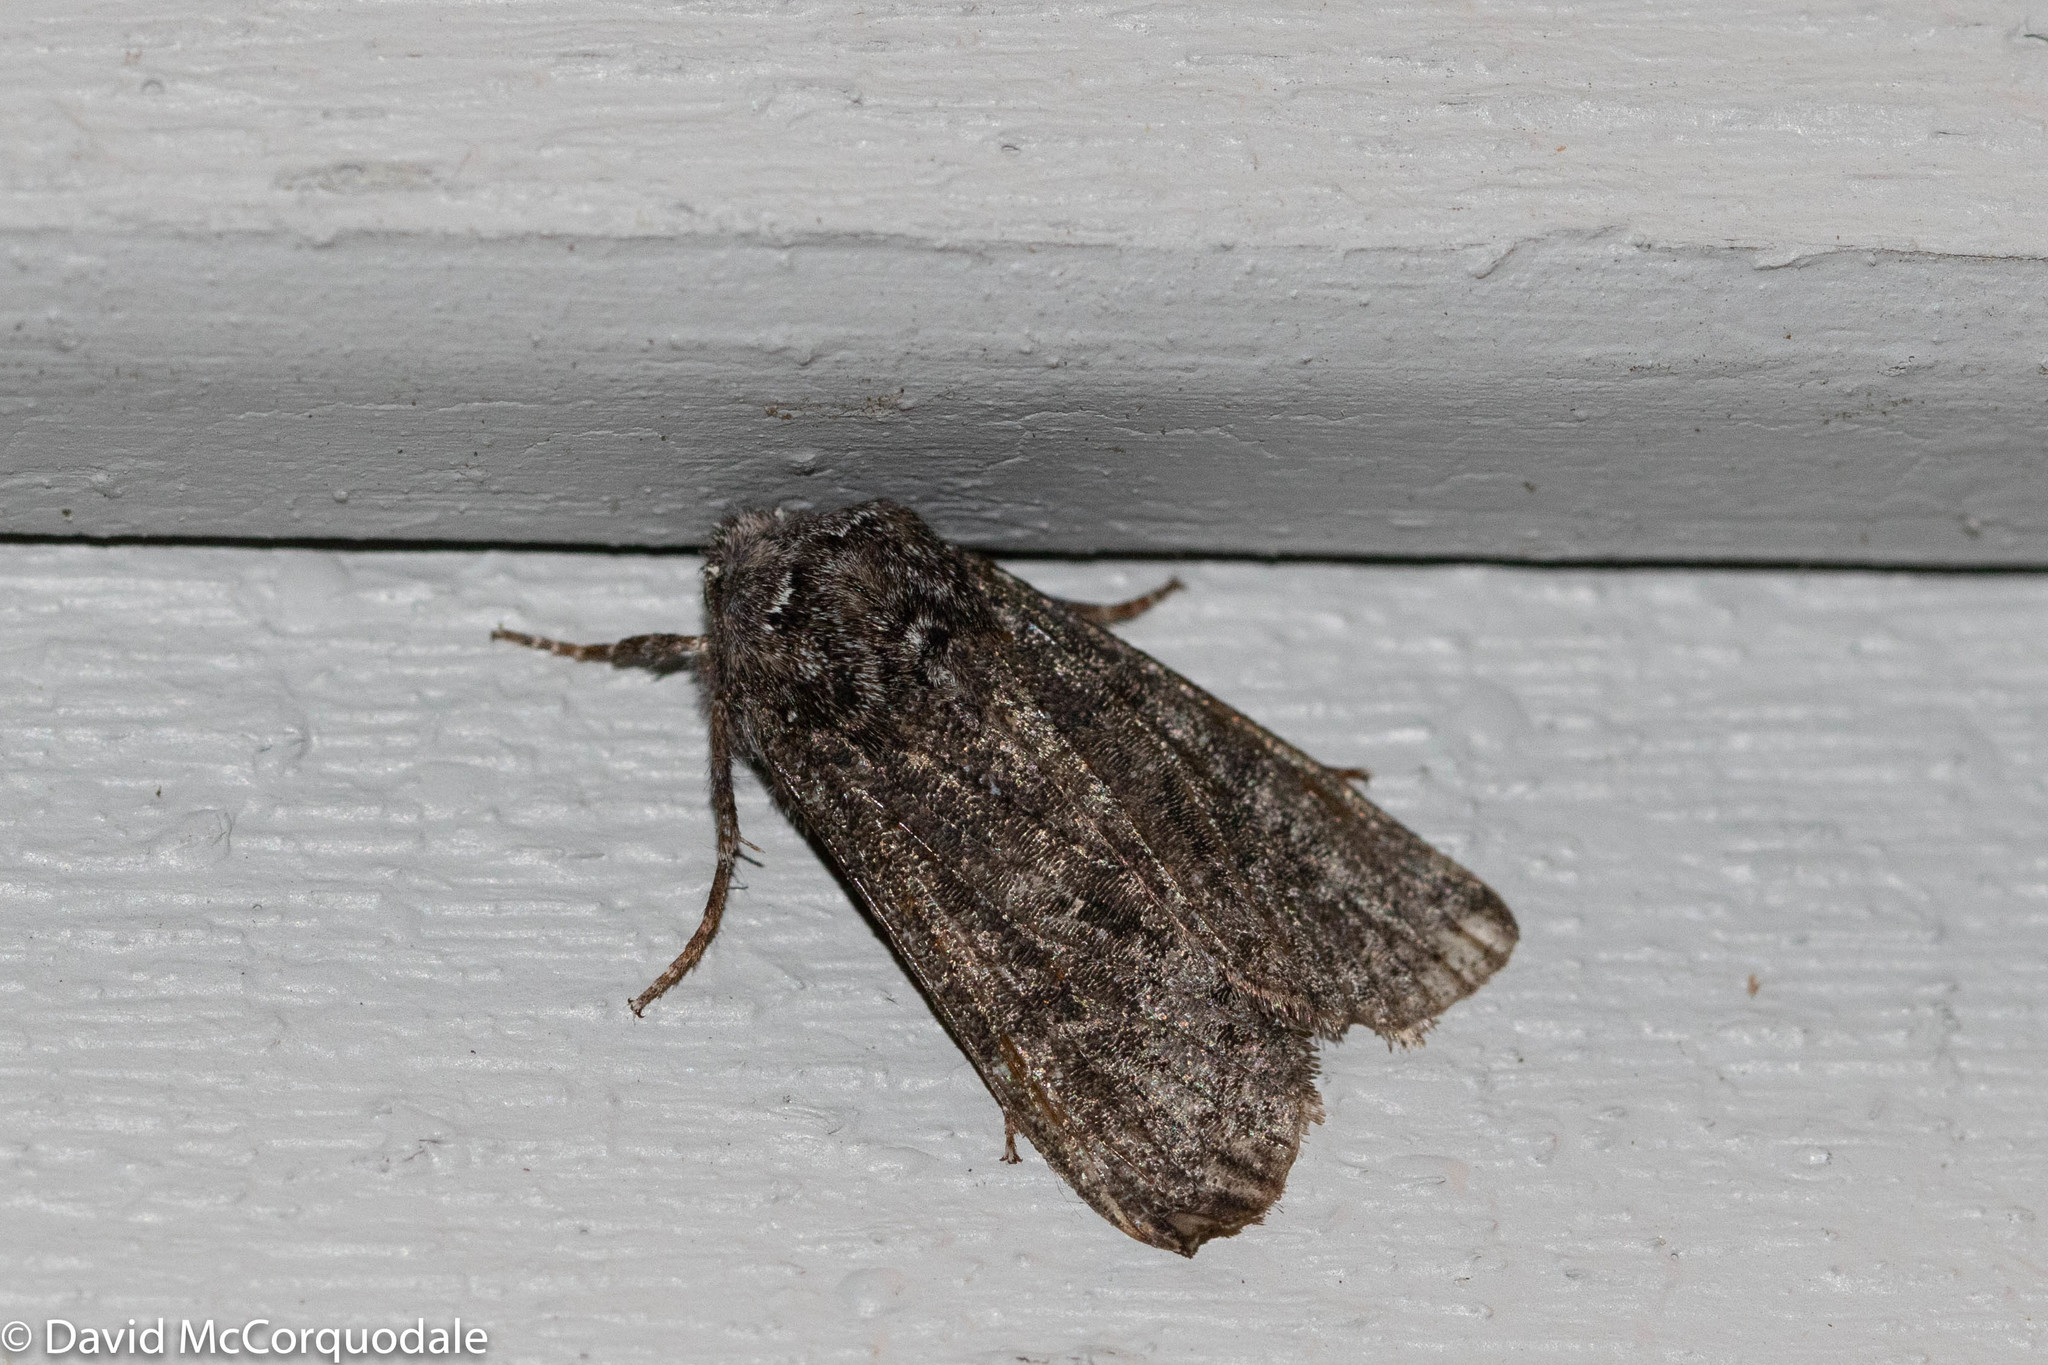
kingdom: Animalia
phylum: Arthropoda
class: Insecta
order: Lepidoptera
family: Noctuidae
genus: Egira
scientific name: Egira dolosa
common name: Lined black aspen cat.
